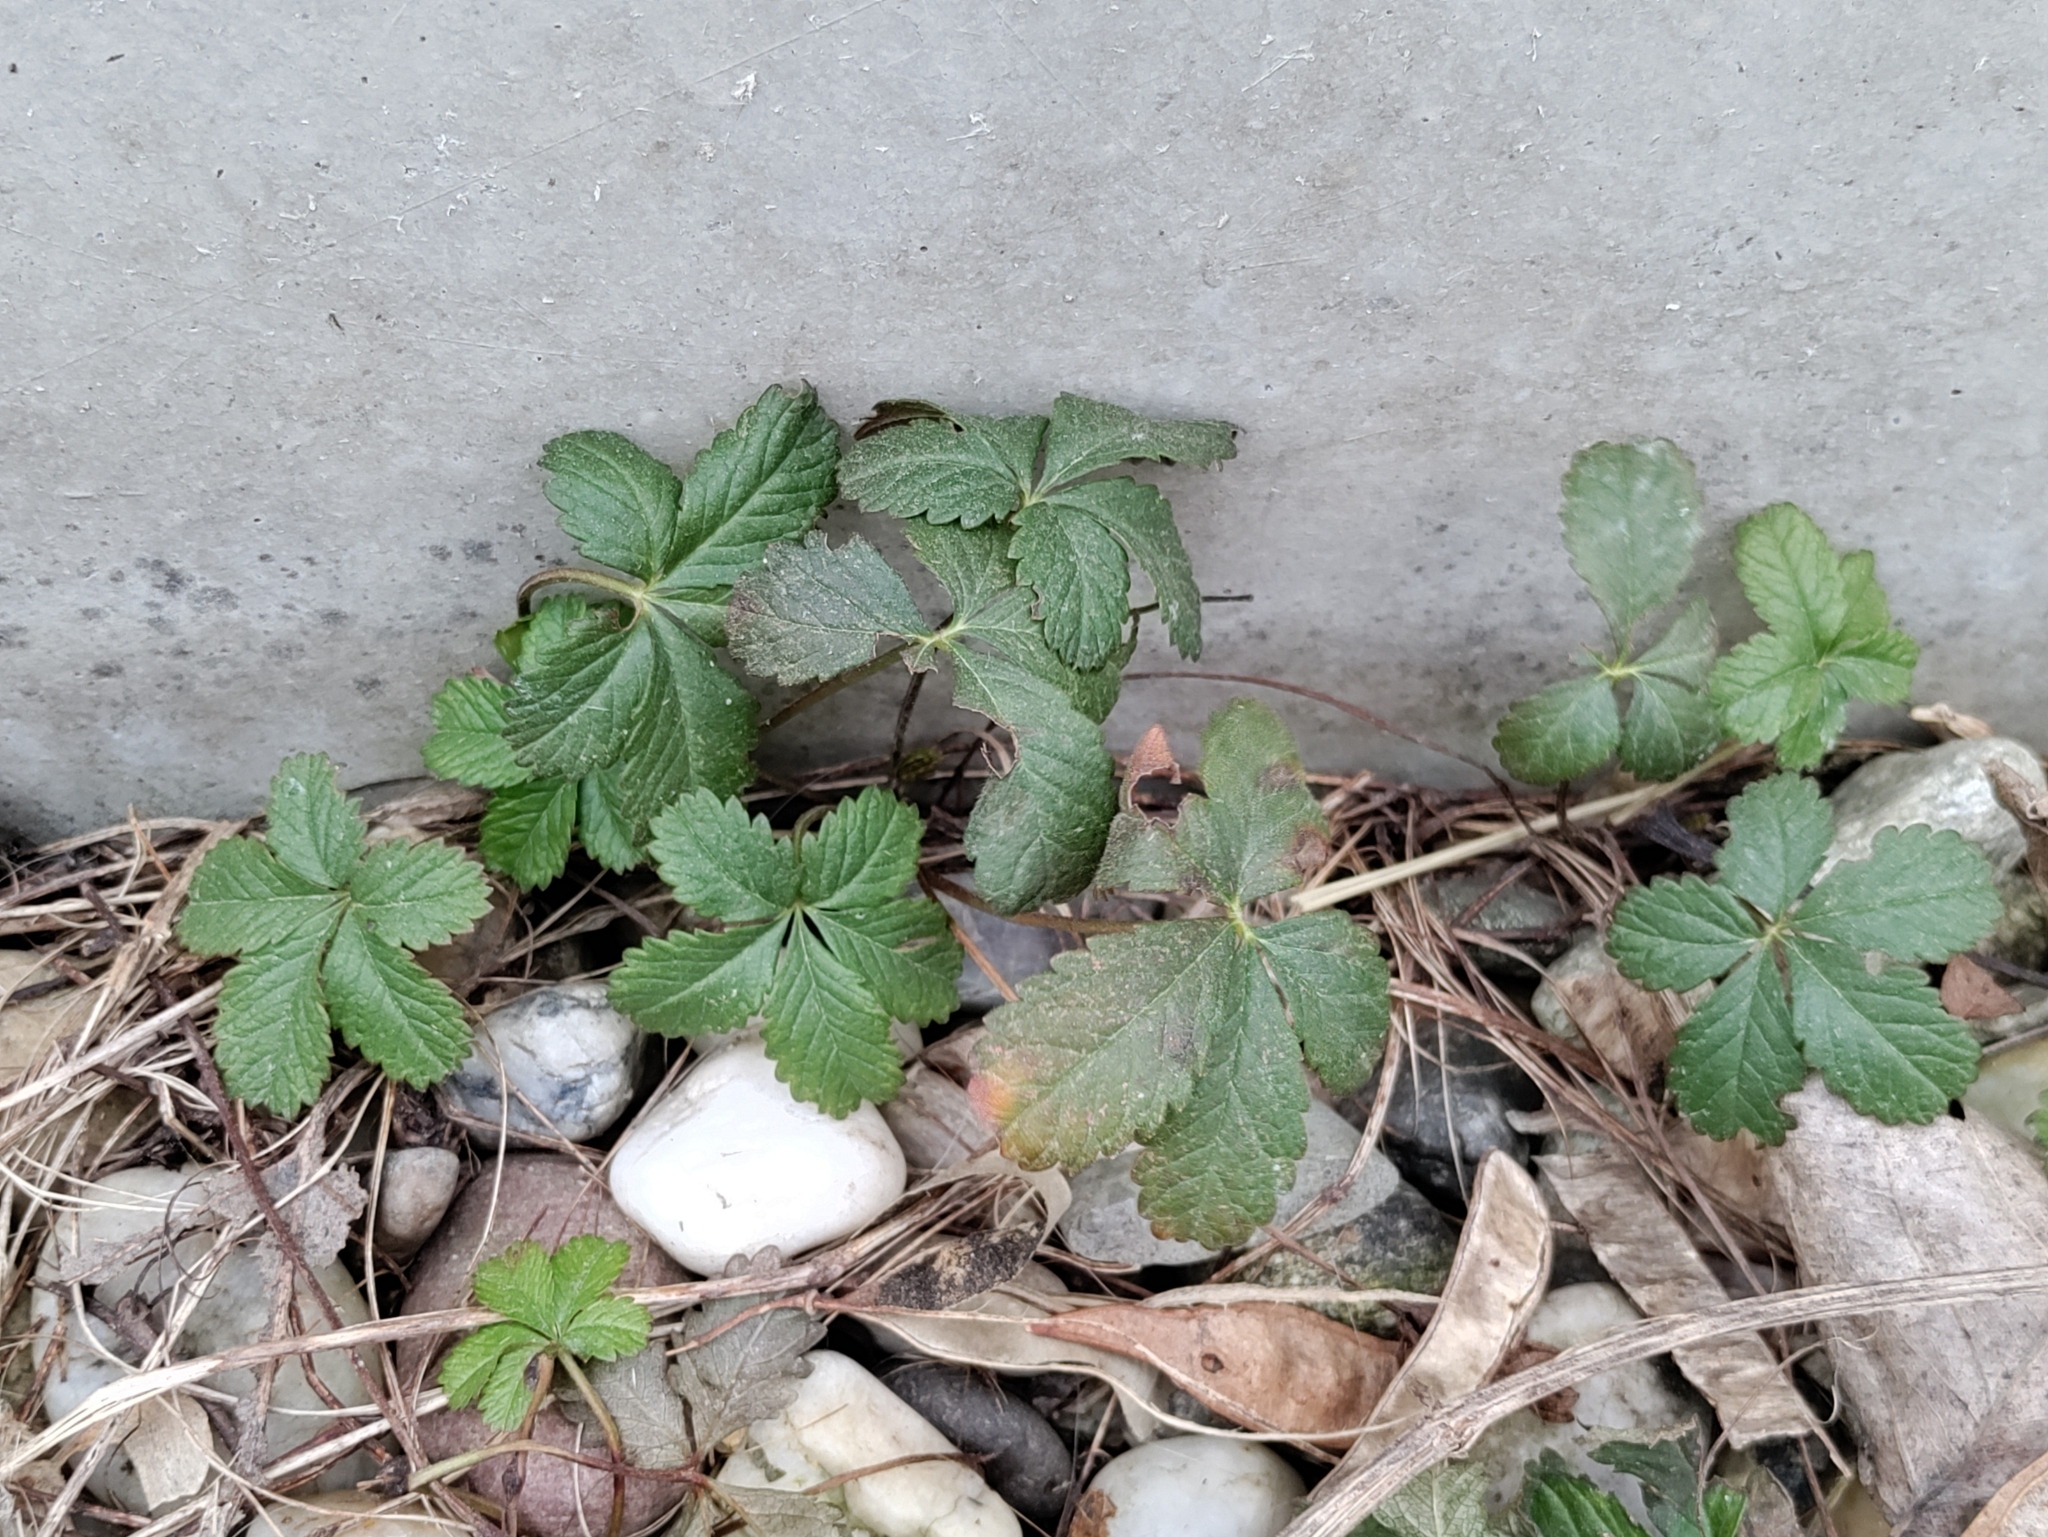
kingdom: Plantae
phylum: Tracheophyta
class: Magnoliopsida
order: Rosales
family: Rosaceae
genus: Potentilla
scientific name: Potentilla reptans
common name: Creeping cinquefoil
